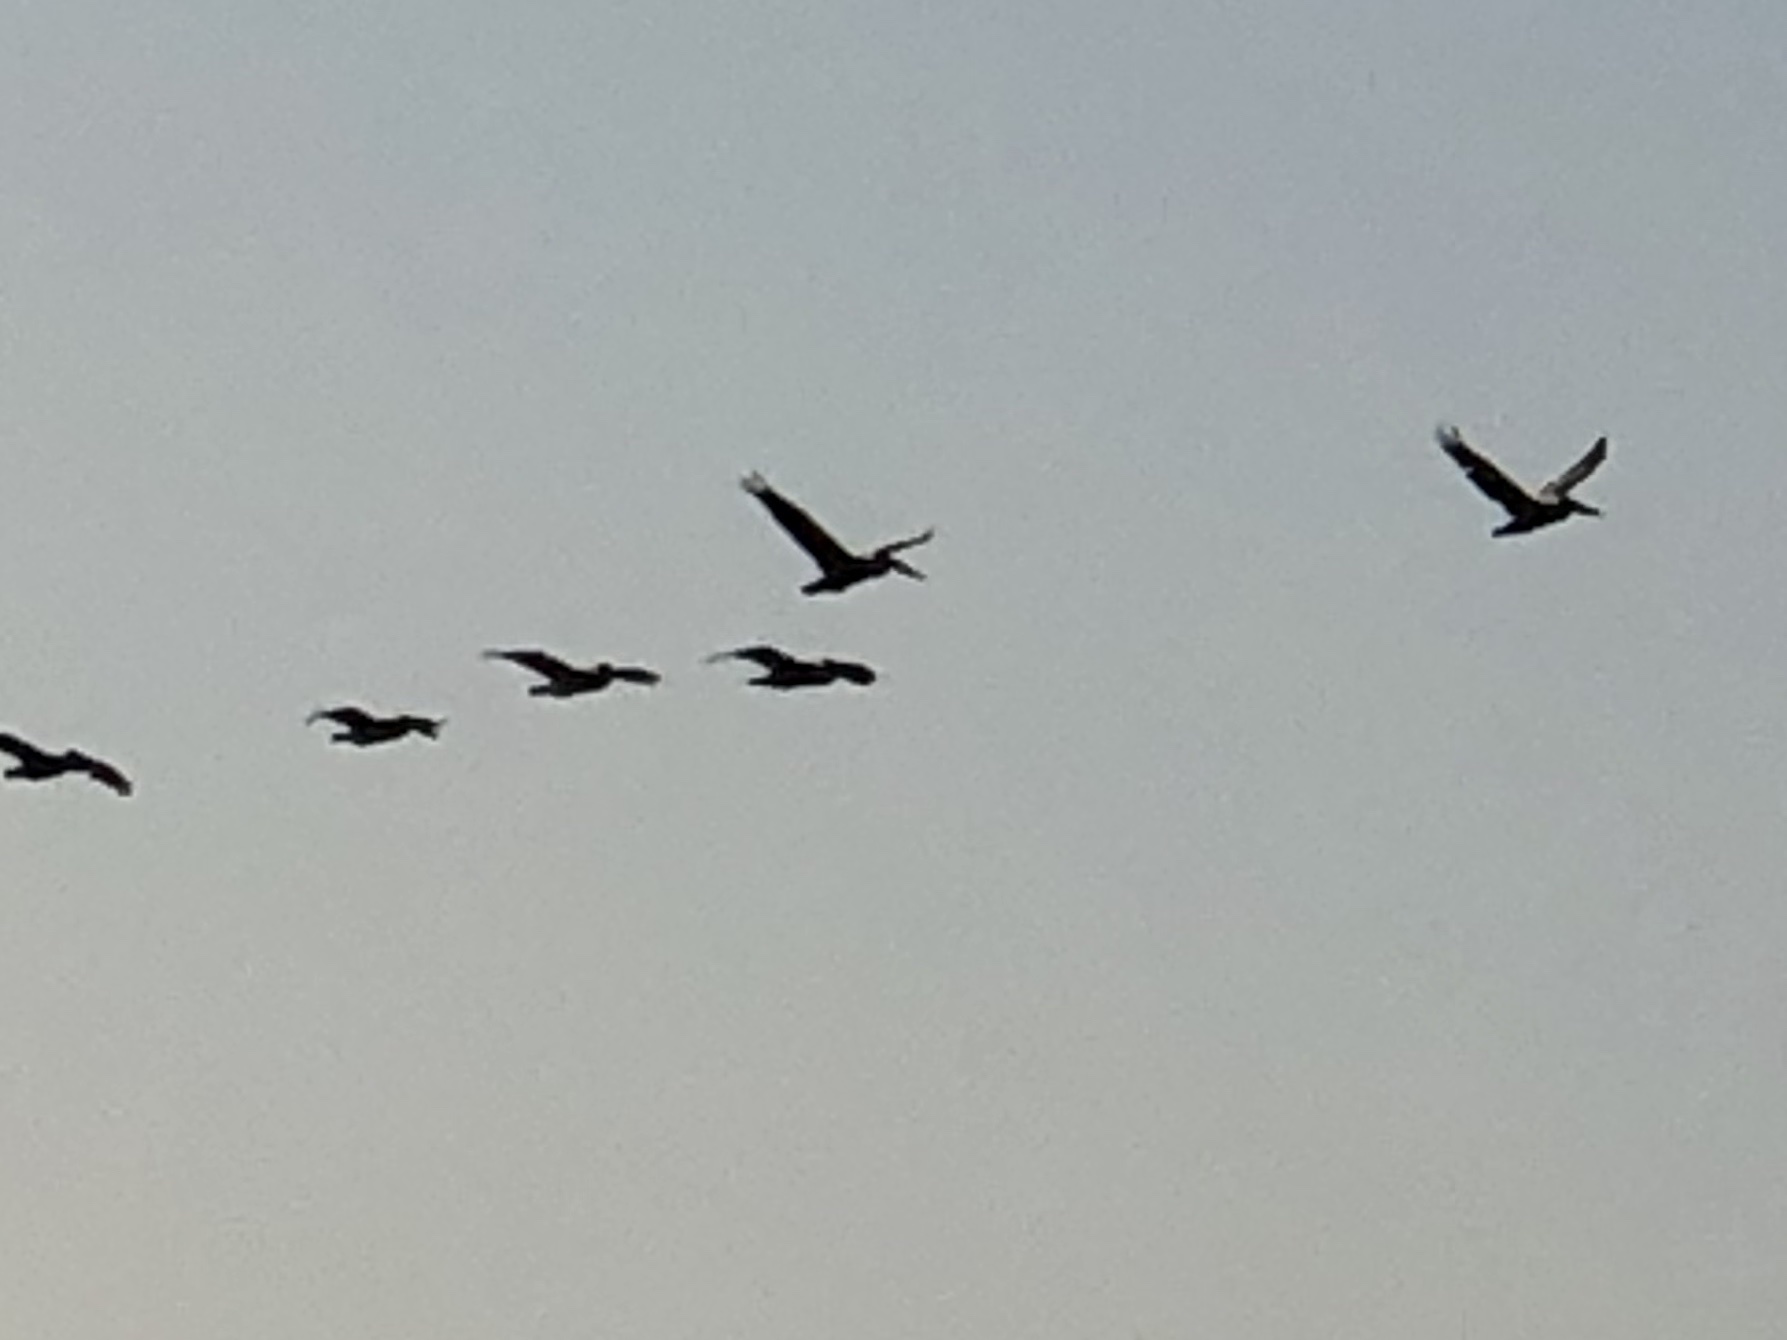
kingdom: Animalia
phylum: Chordata
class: Aves
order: Pelecaniformes
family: Pelecanidae
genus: Pelecanus
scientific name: Pelecanus occidentalis
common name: Brown pelican
